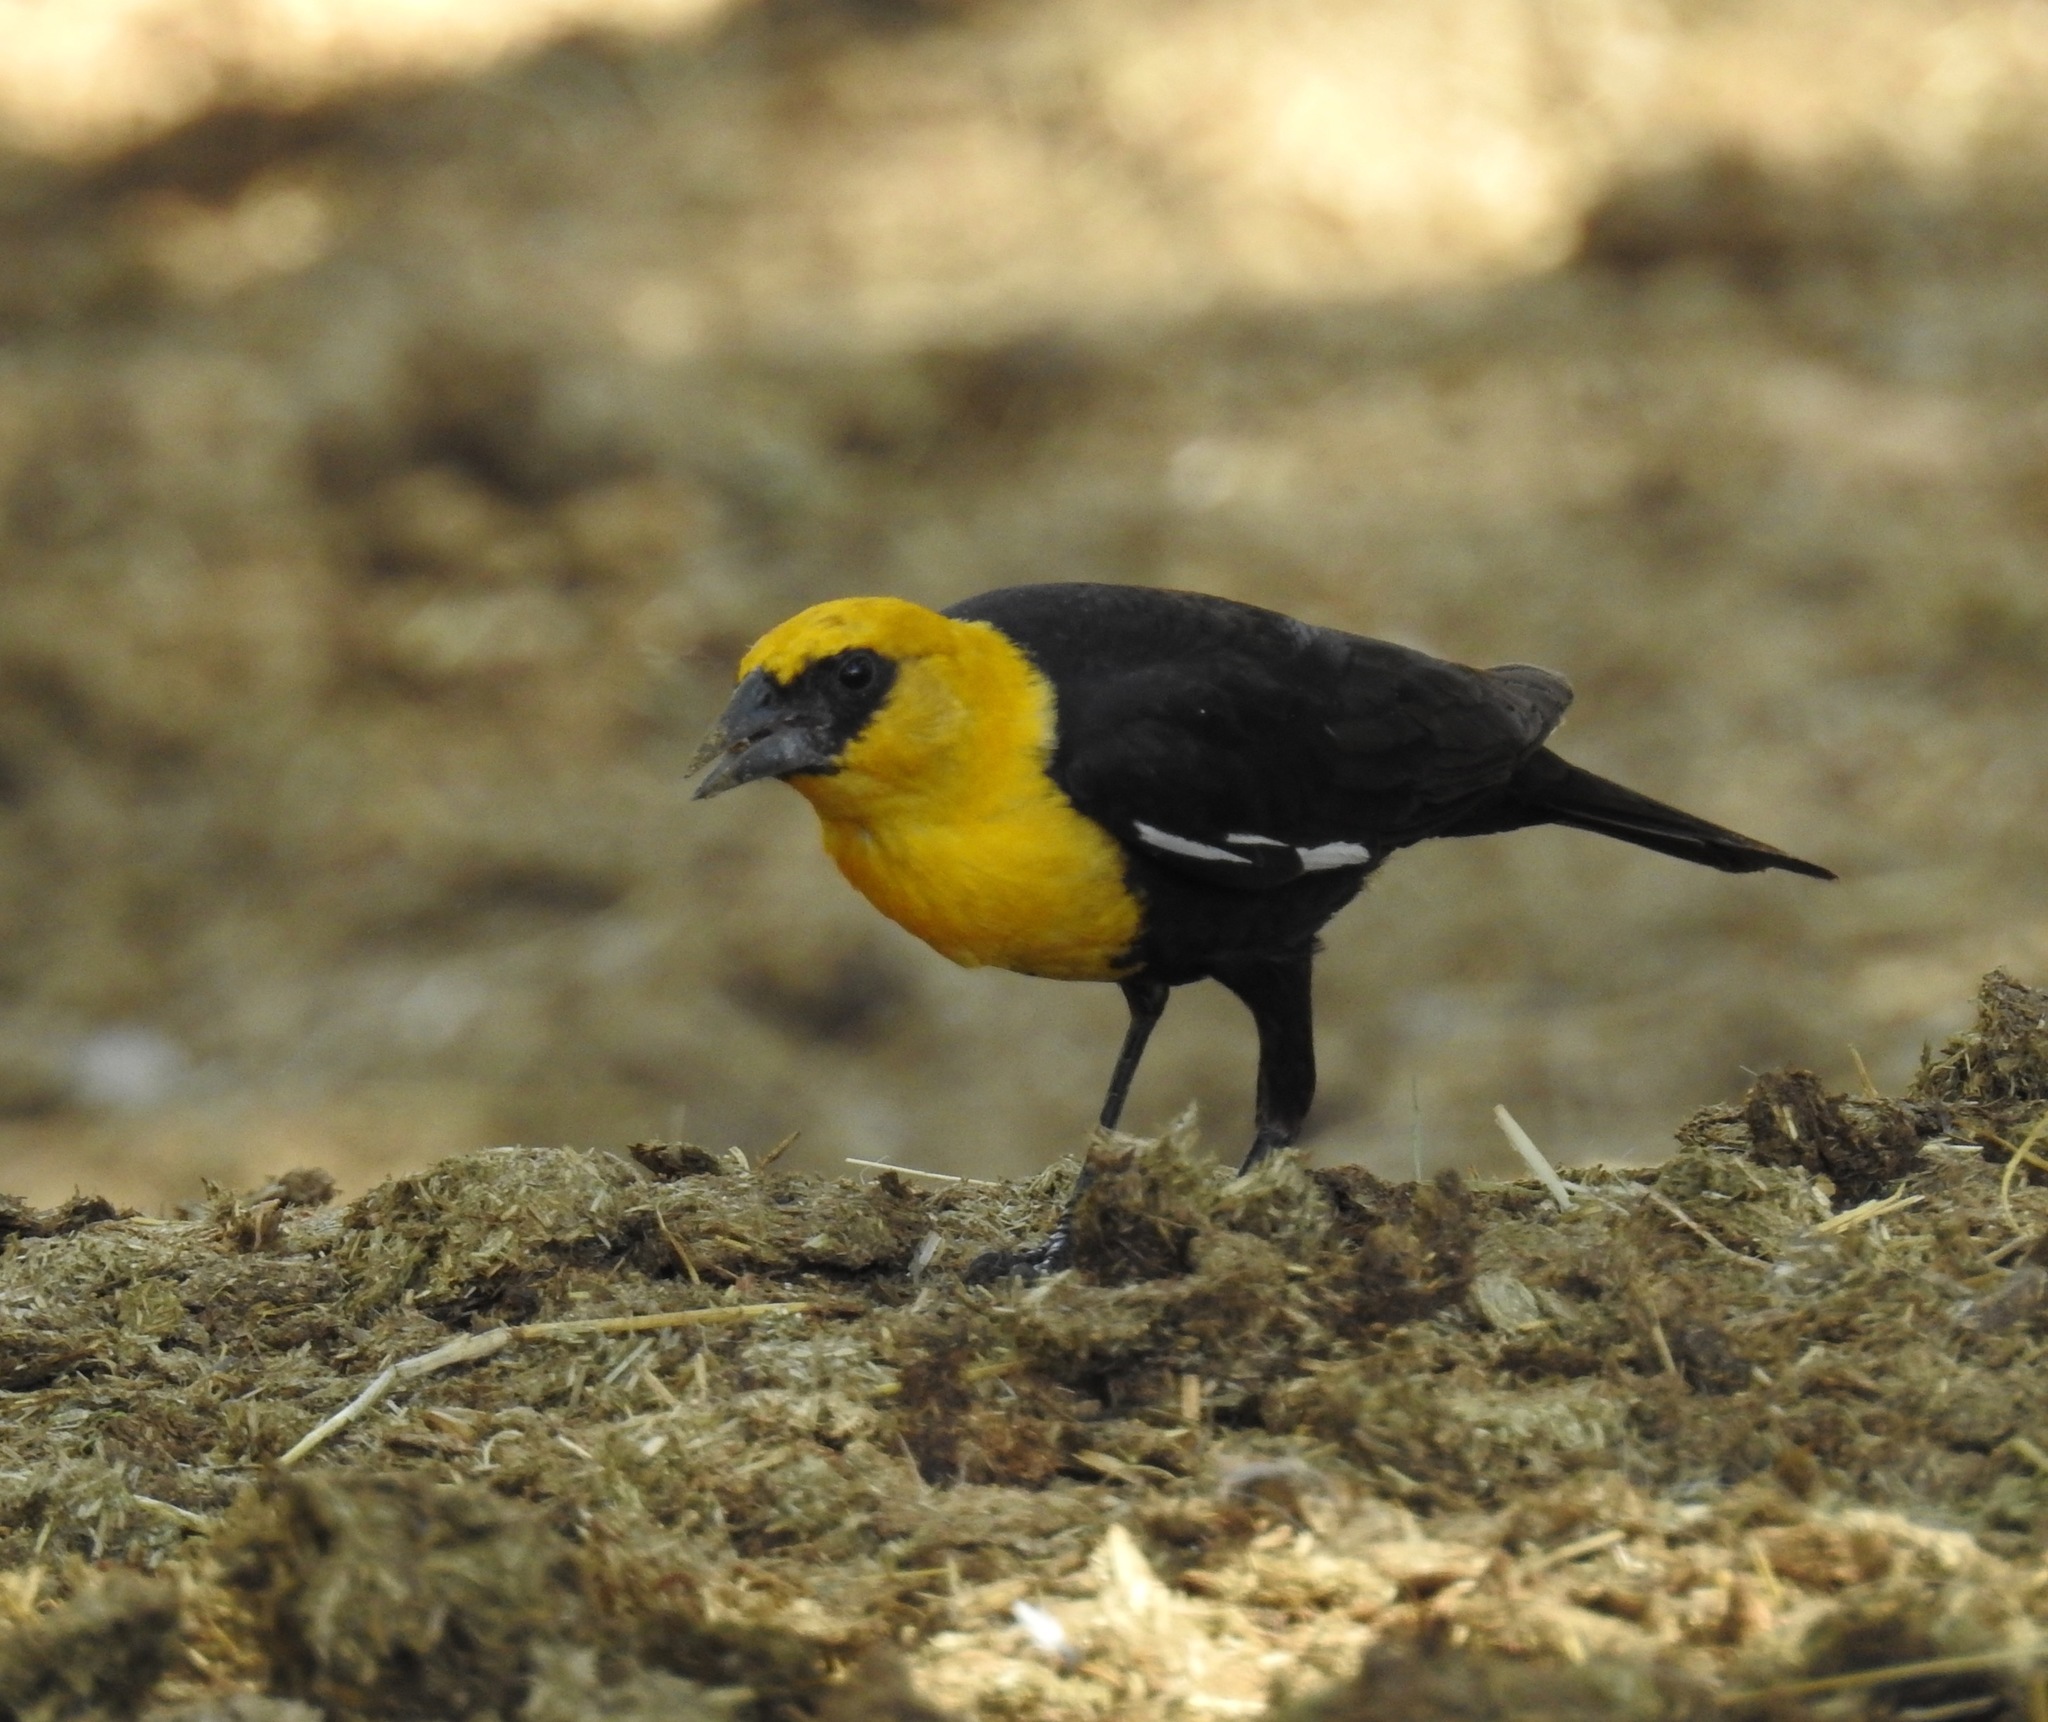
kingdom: Animalia
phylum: Chordata
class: Aves
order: Passeriformes
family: Icteridae
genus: Xanthocephalus
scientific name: Xanthocephalus xanthocephalus
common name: Yellow-headed blackbird
